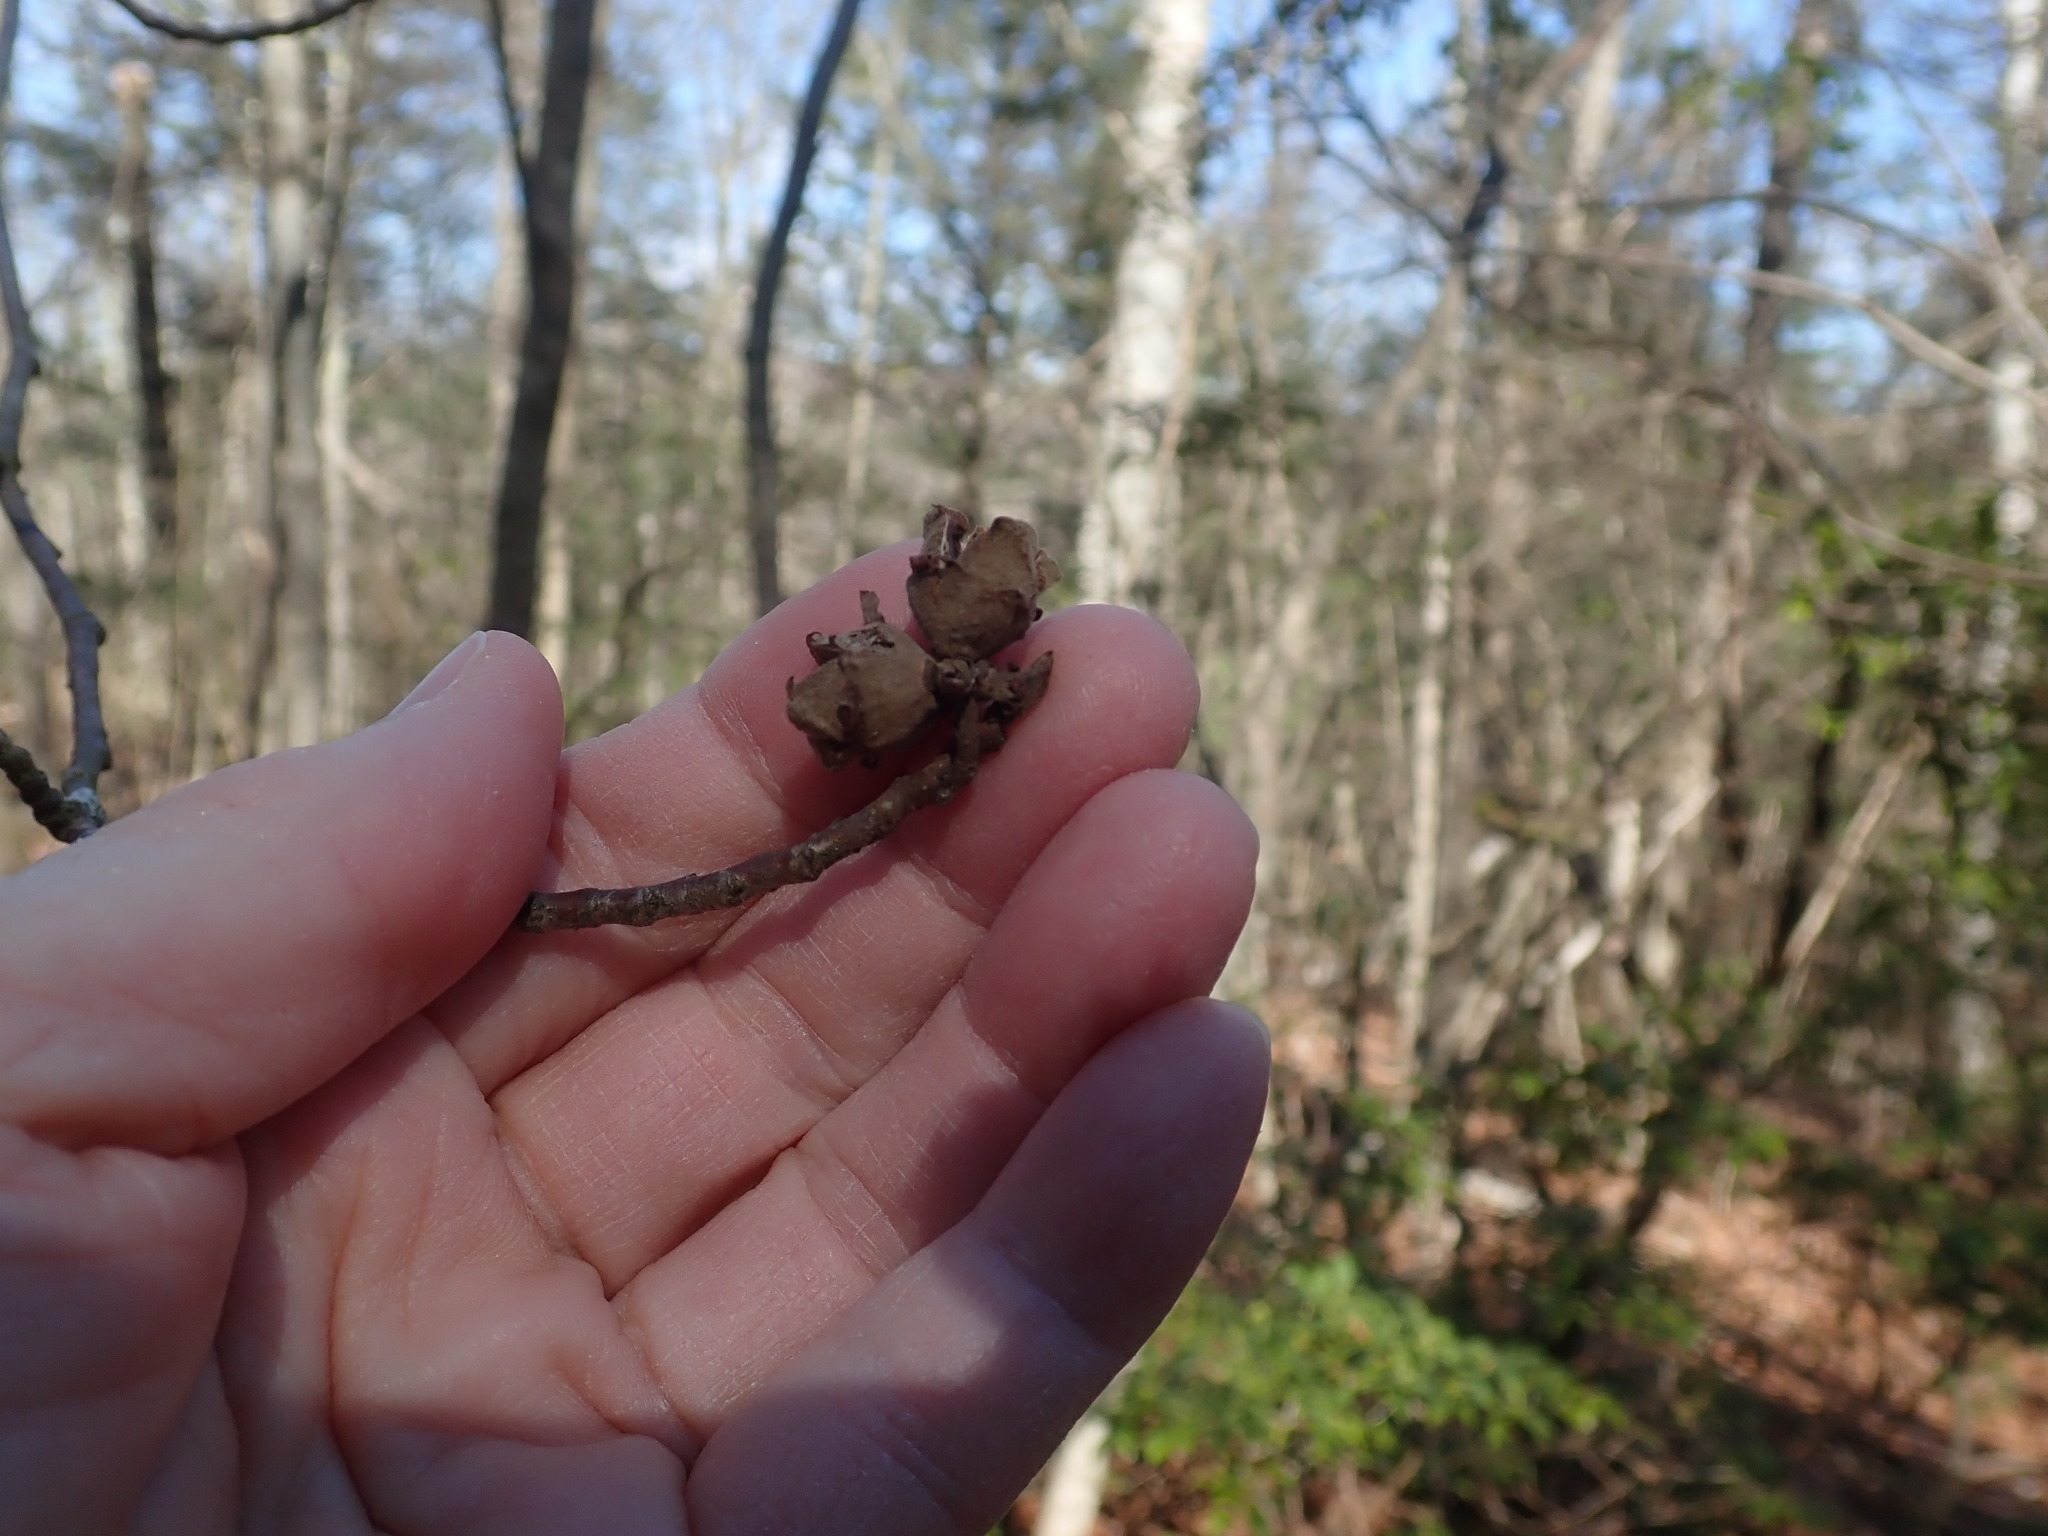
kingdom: Plantae
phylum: Tracheophyta
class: Magnoliopsida
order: Saxifragales
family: Hamamelidaceae
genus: Hamamelis
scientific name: Hamamelis virginiana
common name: Witch-hazel
